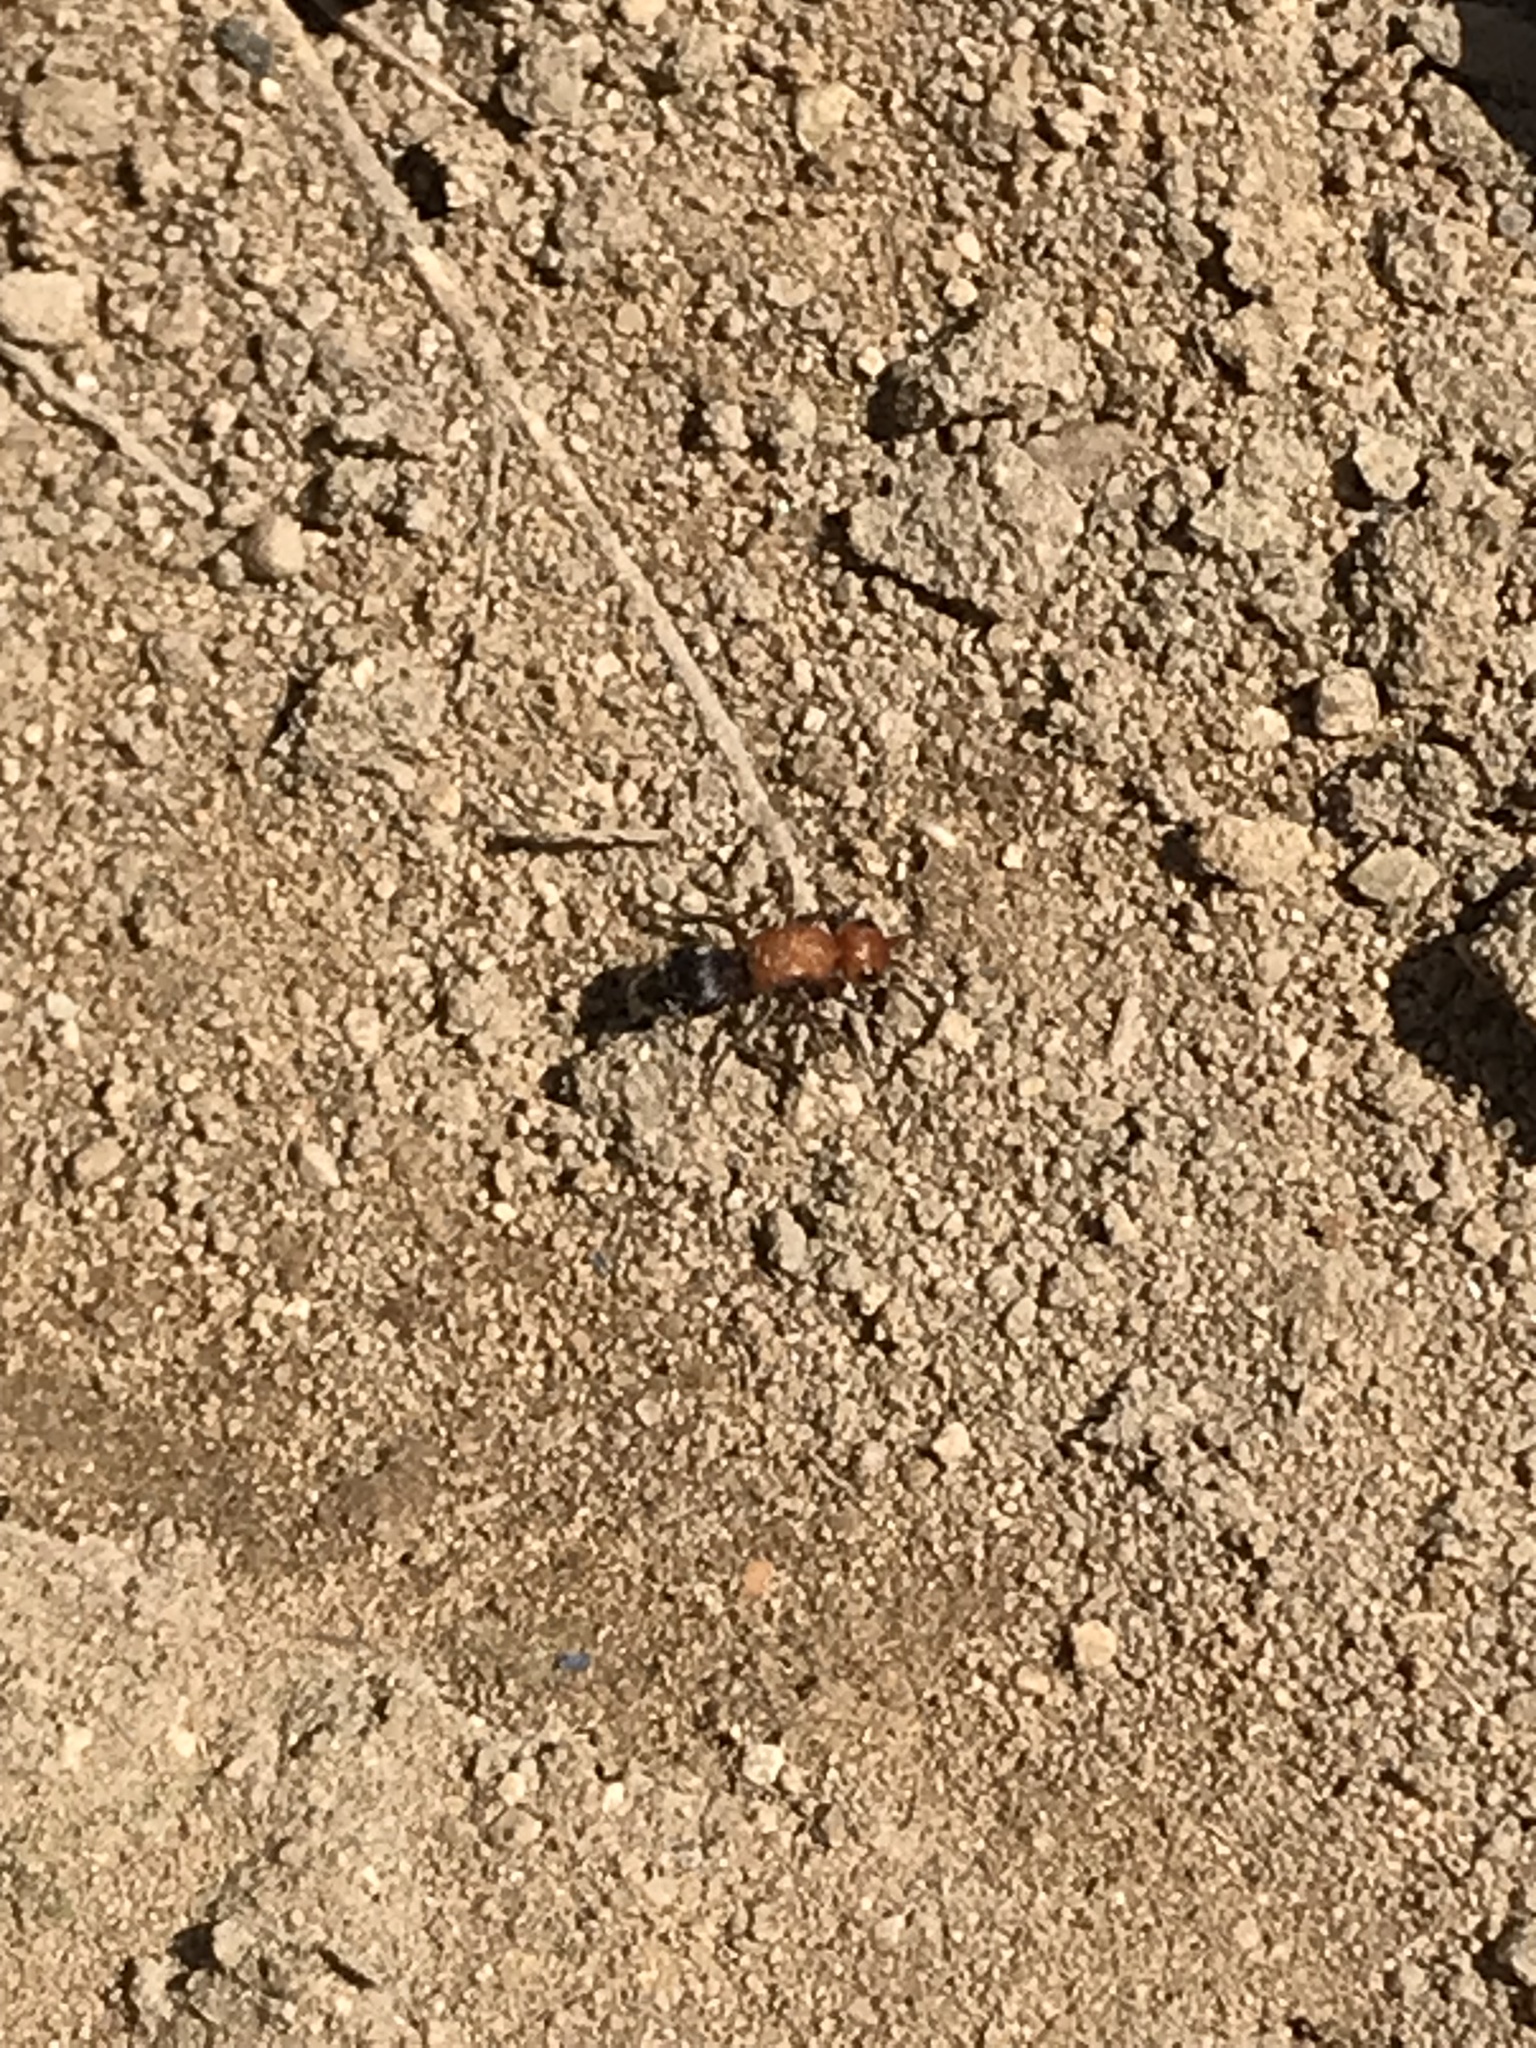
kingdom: Animalia
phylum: Arthropoda
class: Insecta
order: Hymenoptera
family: Mutillidae
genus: Timulla
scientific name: Timulla
